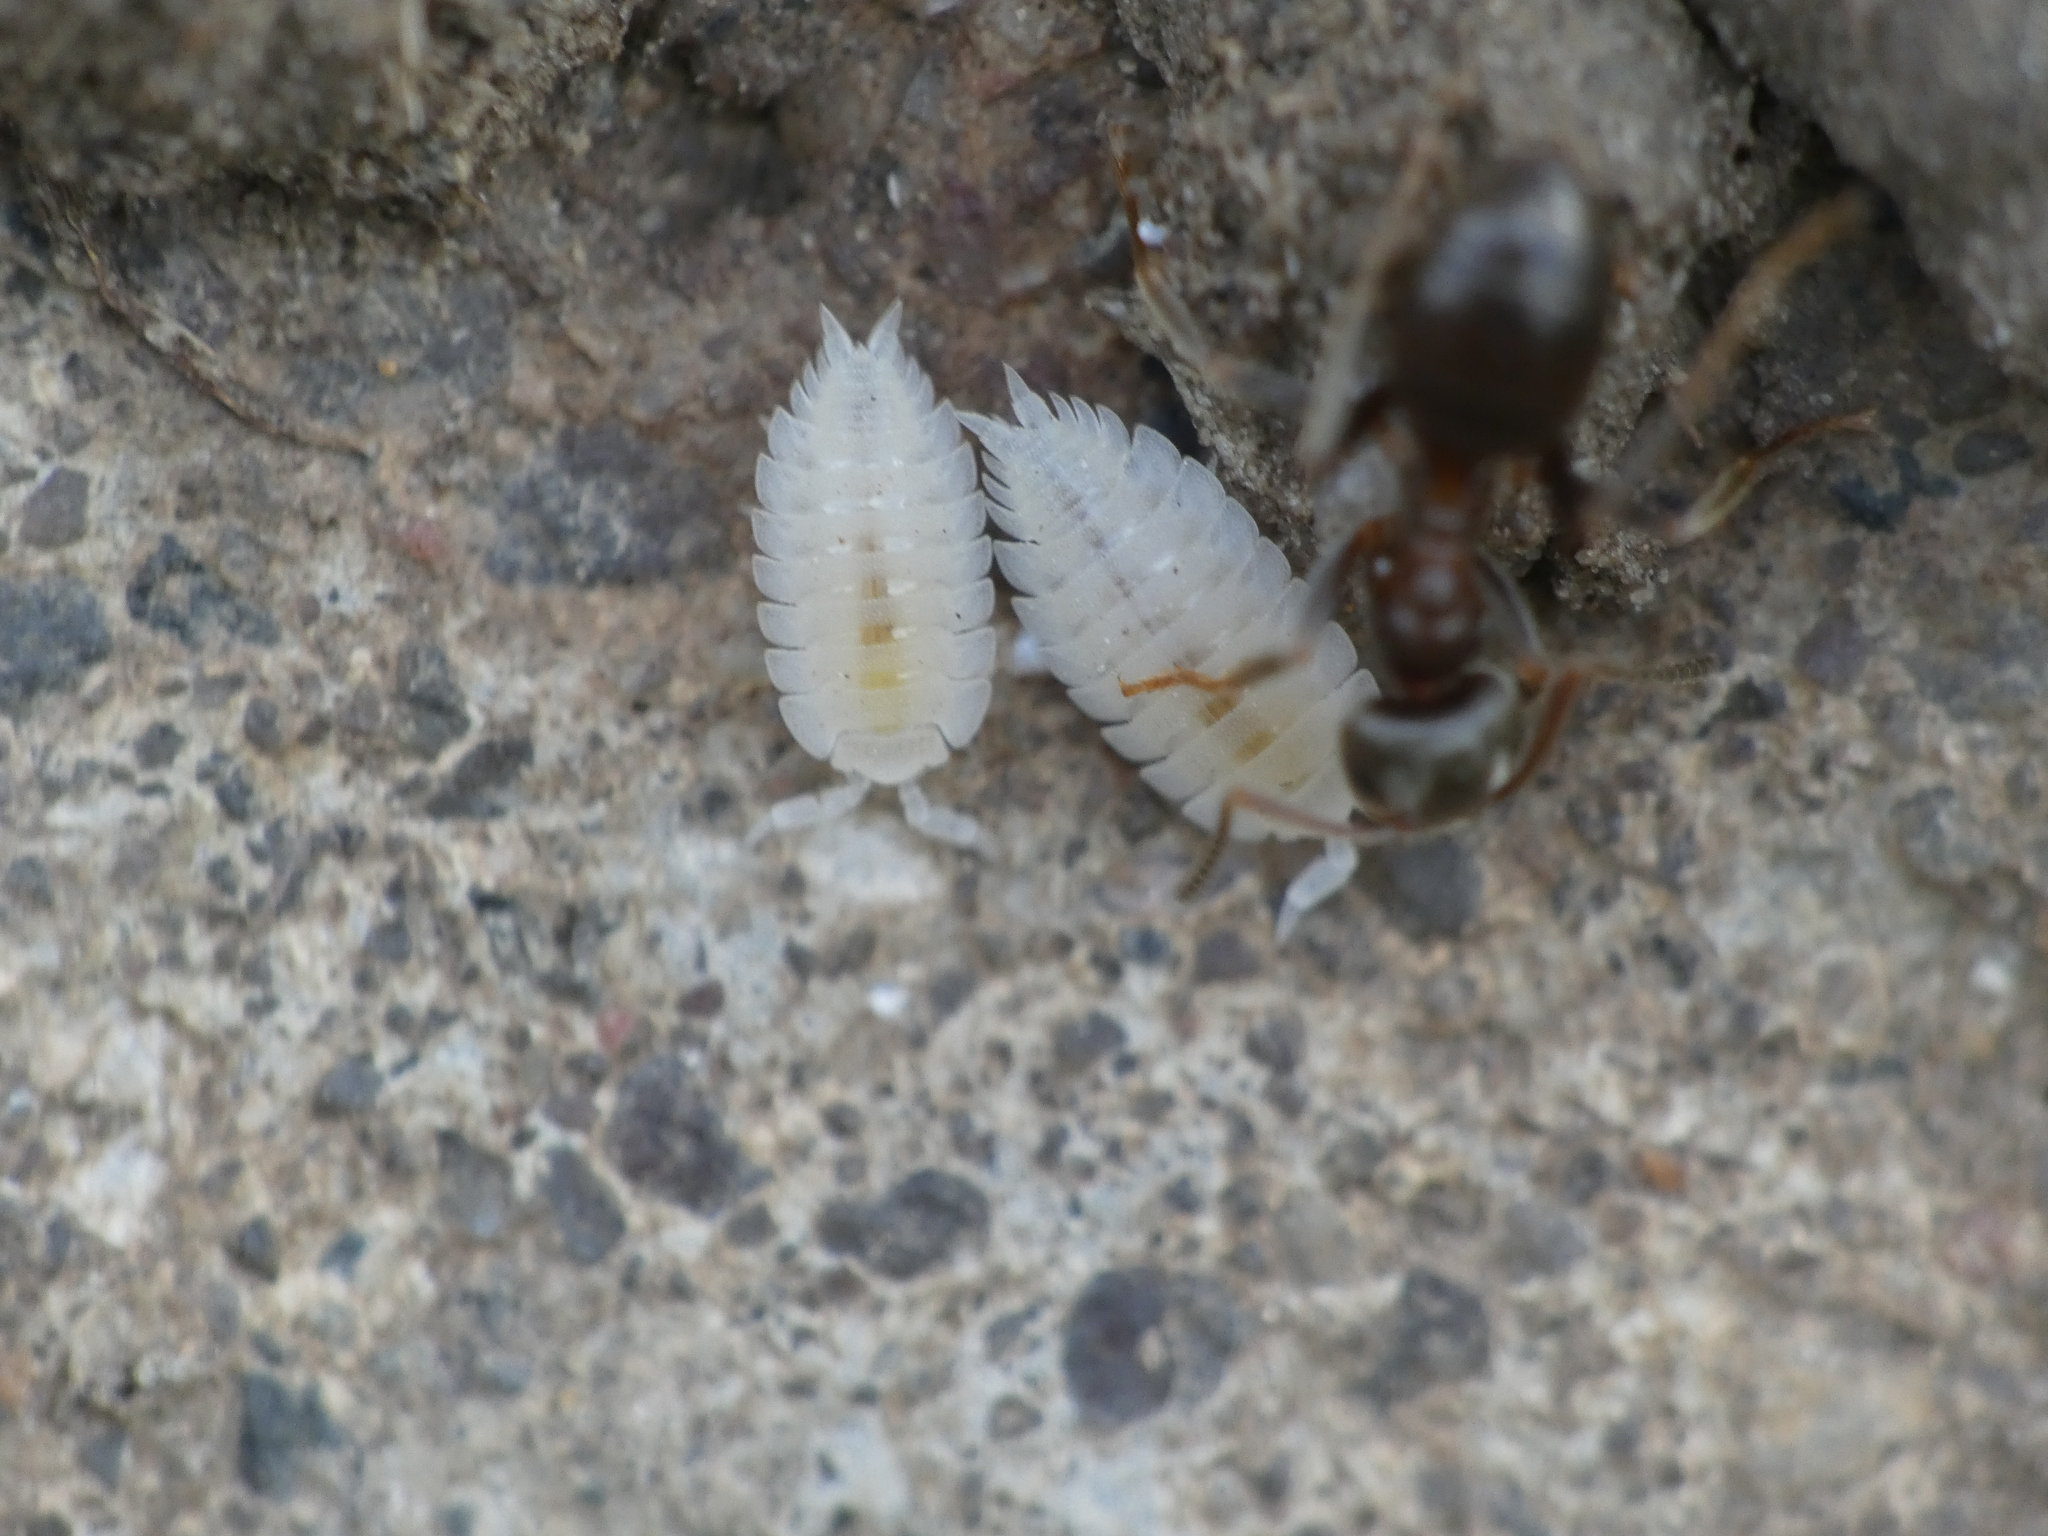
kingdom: Animalia
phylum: Arthropoda
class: Malacostraca
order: Isopoda
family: Platyarthridae
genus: Platyarthrus
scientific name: Platyarthrus hoffmannseggii
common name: Ant woodlouse
